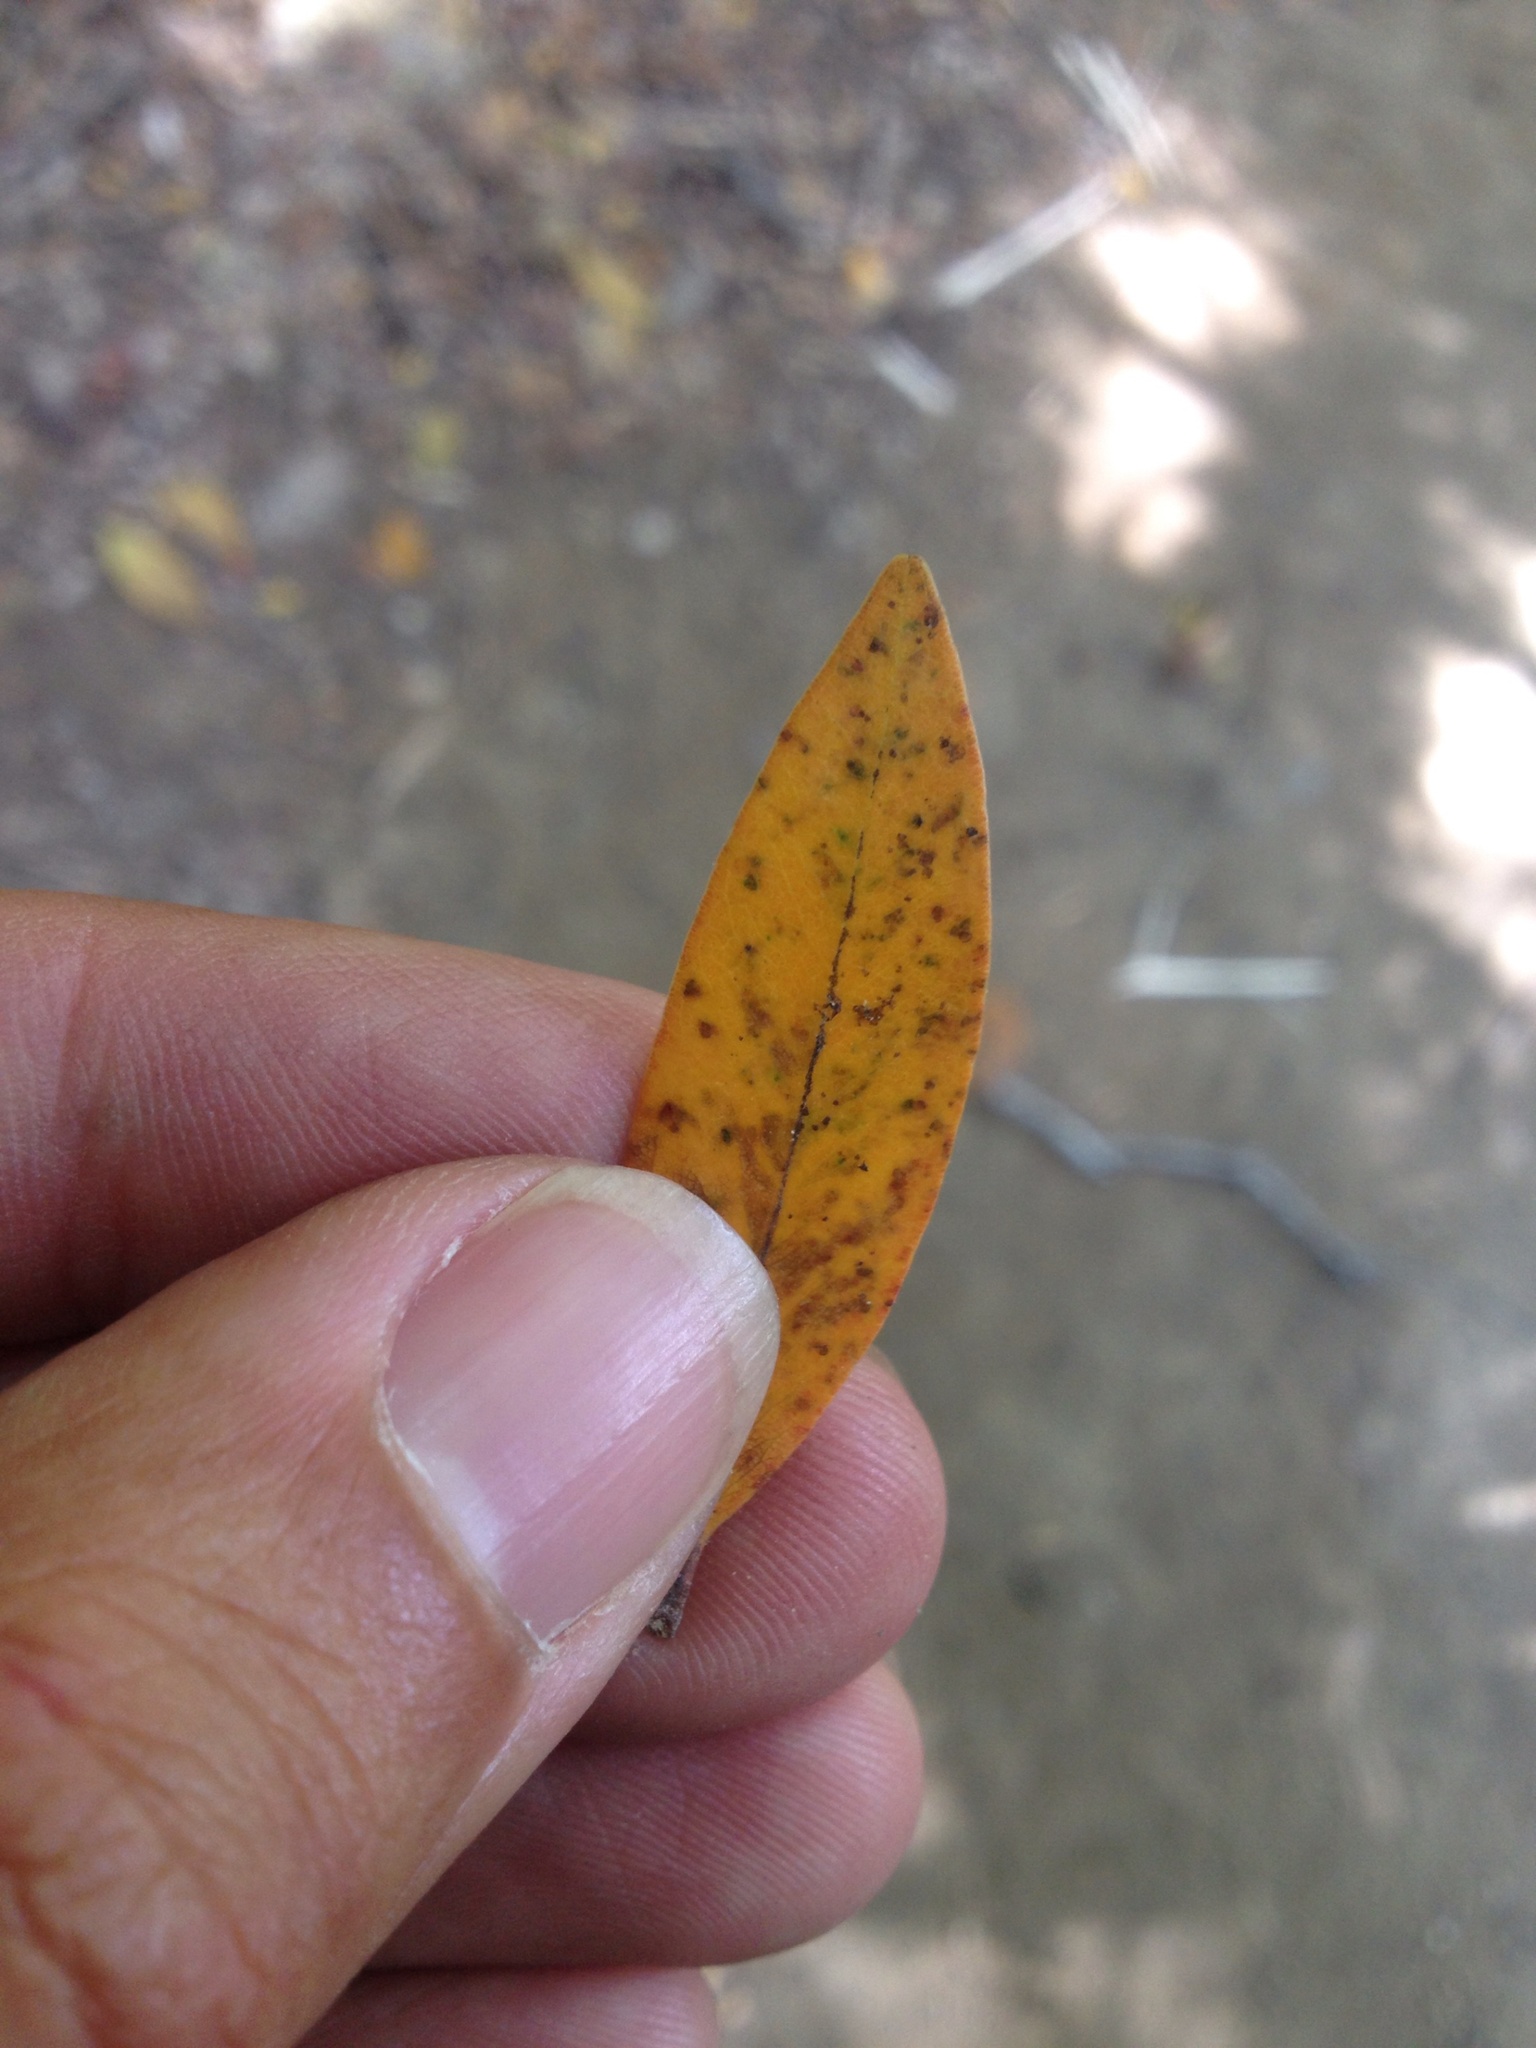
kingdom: Plantae
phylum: Tracheophyta
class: Magnoliopsida
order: Myrtales
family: Myrtaceae
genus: Metrosideros
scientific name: Metrosideros robusta
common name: Northern rata
